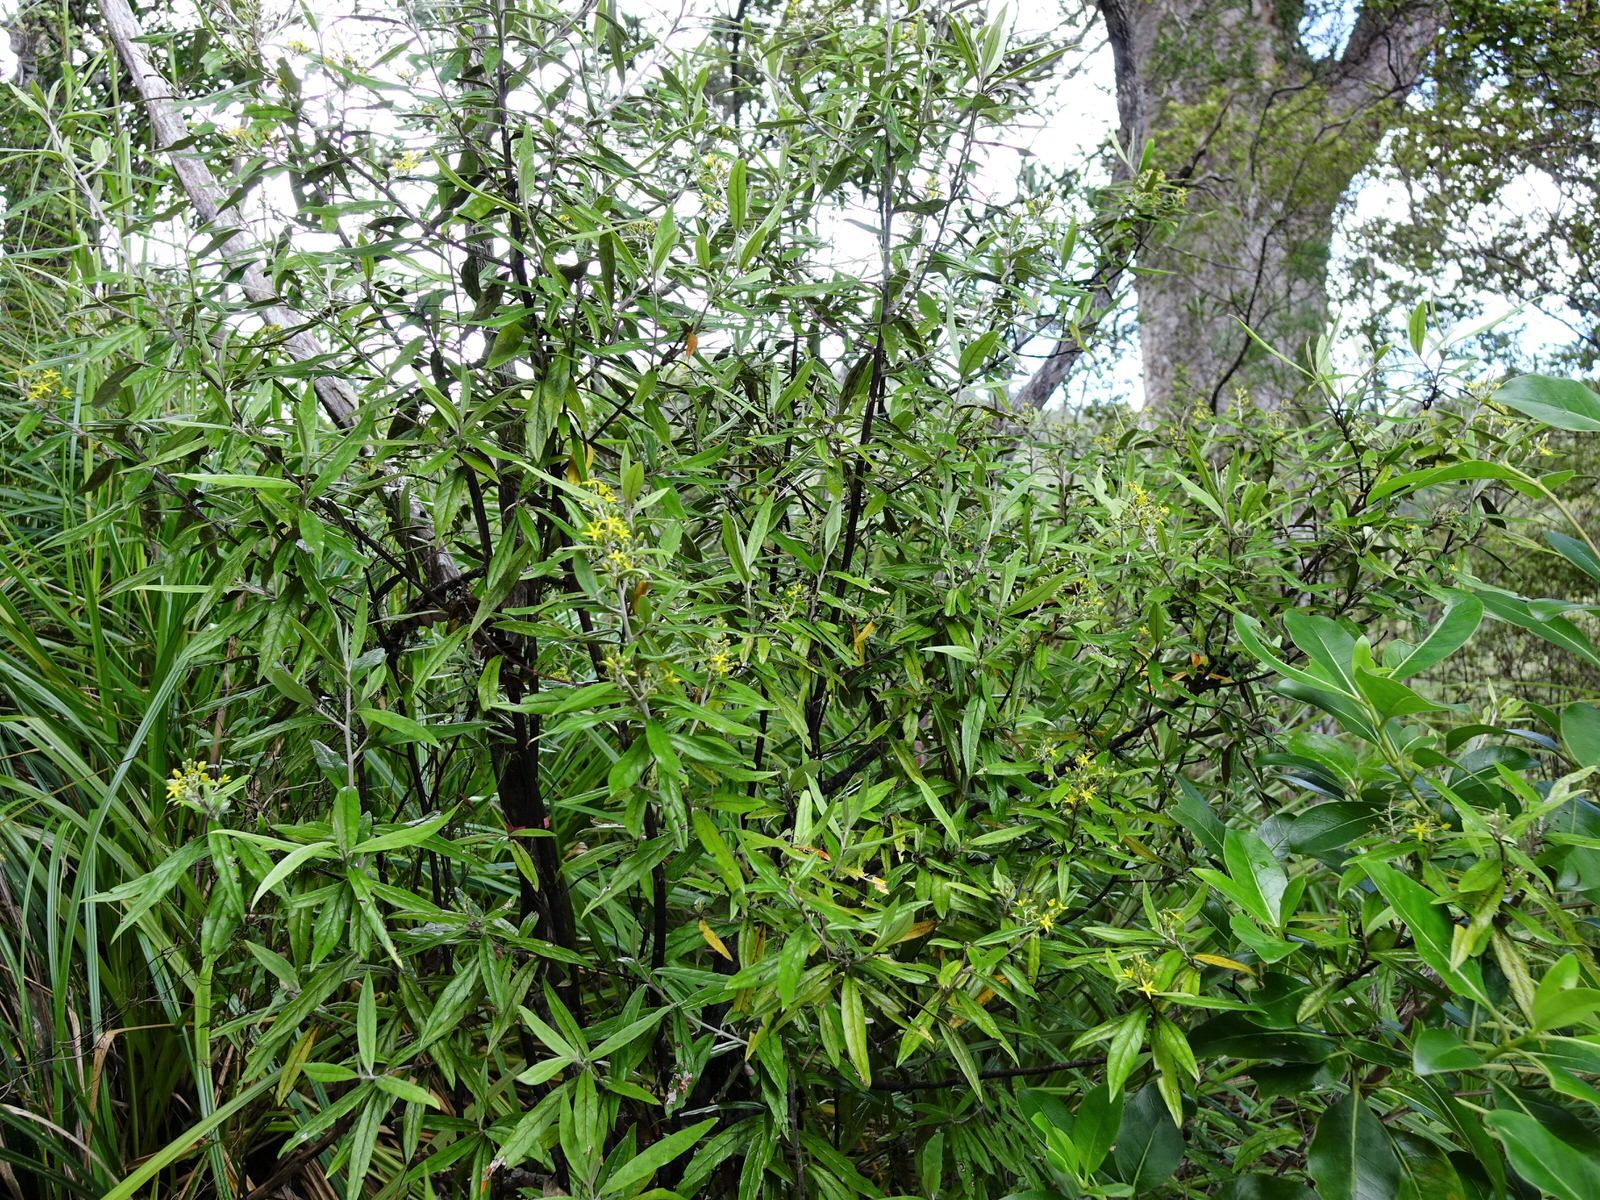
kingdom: Plantae
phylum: Tracheophyta
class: Magnoliopsida
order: Asterales
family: Argophyllaceae
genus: Corokia
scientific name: Corokia buddleioides
